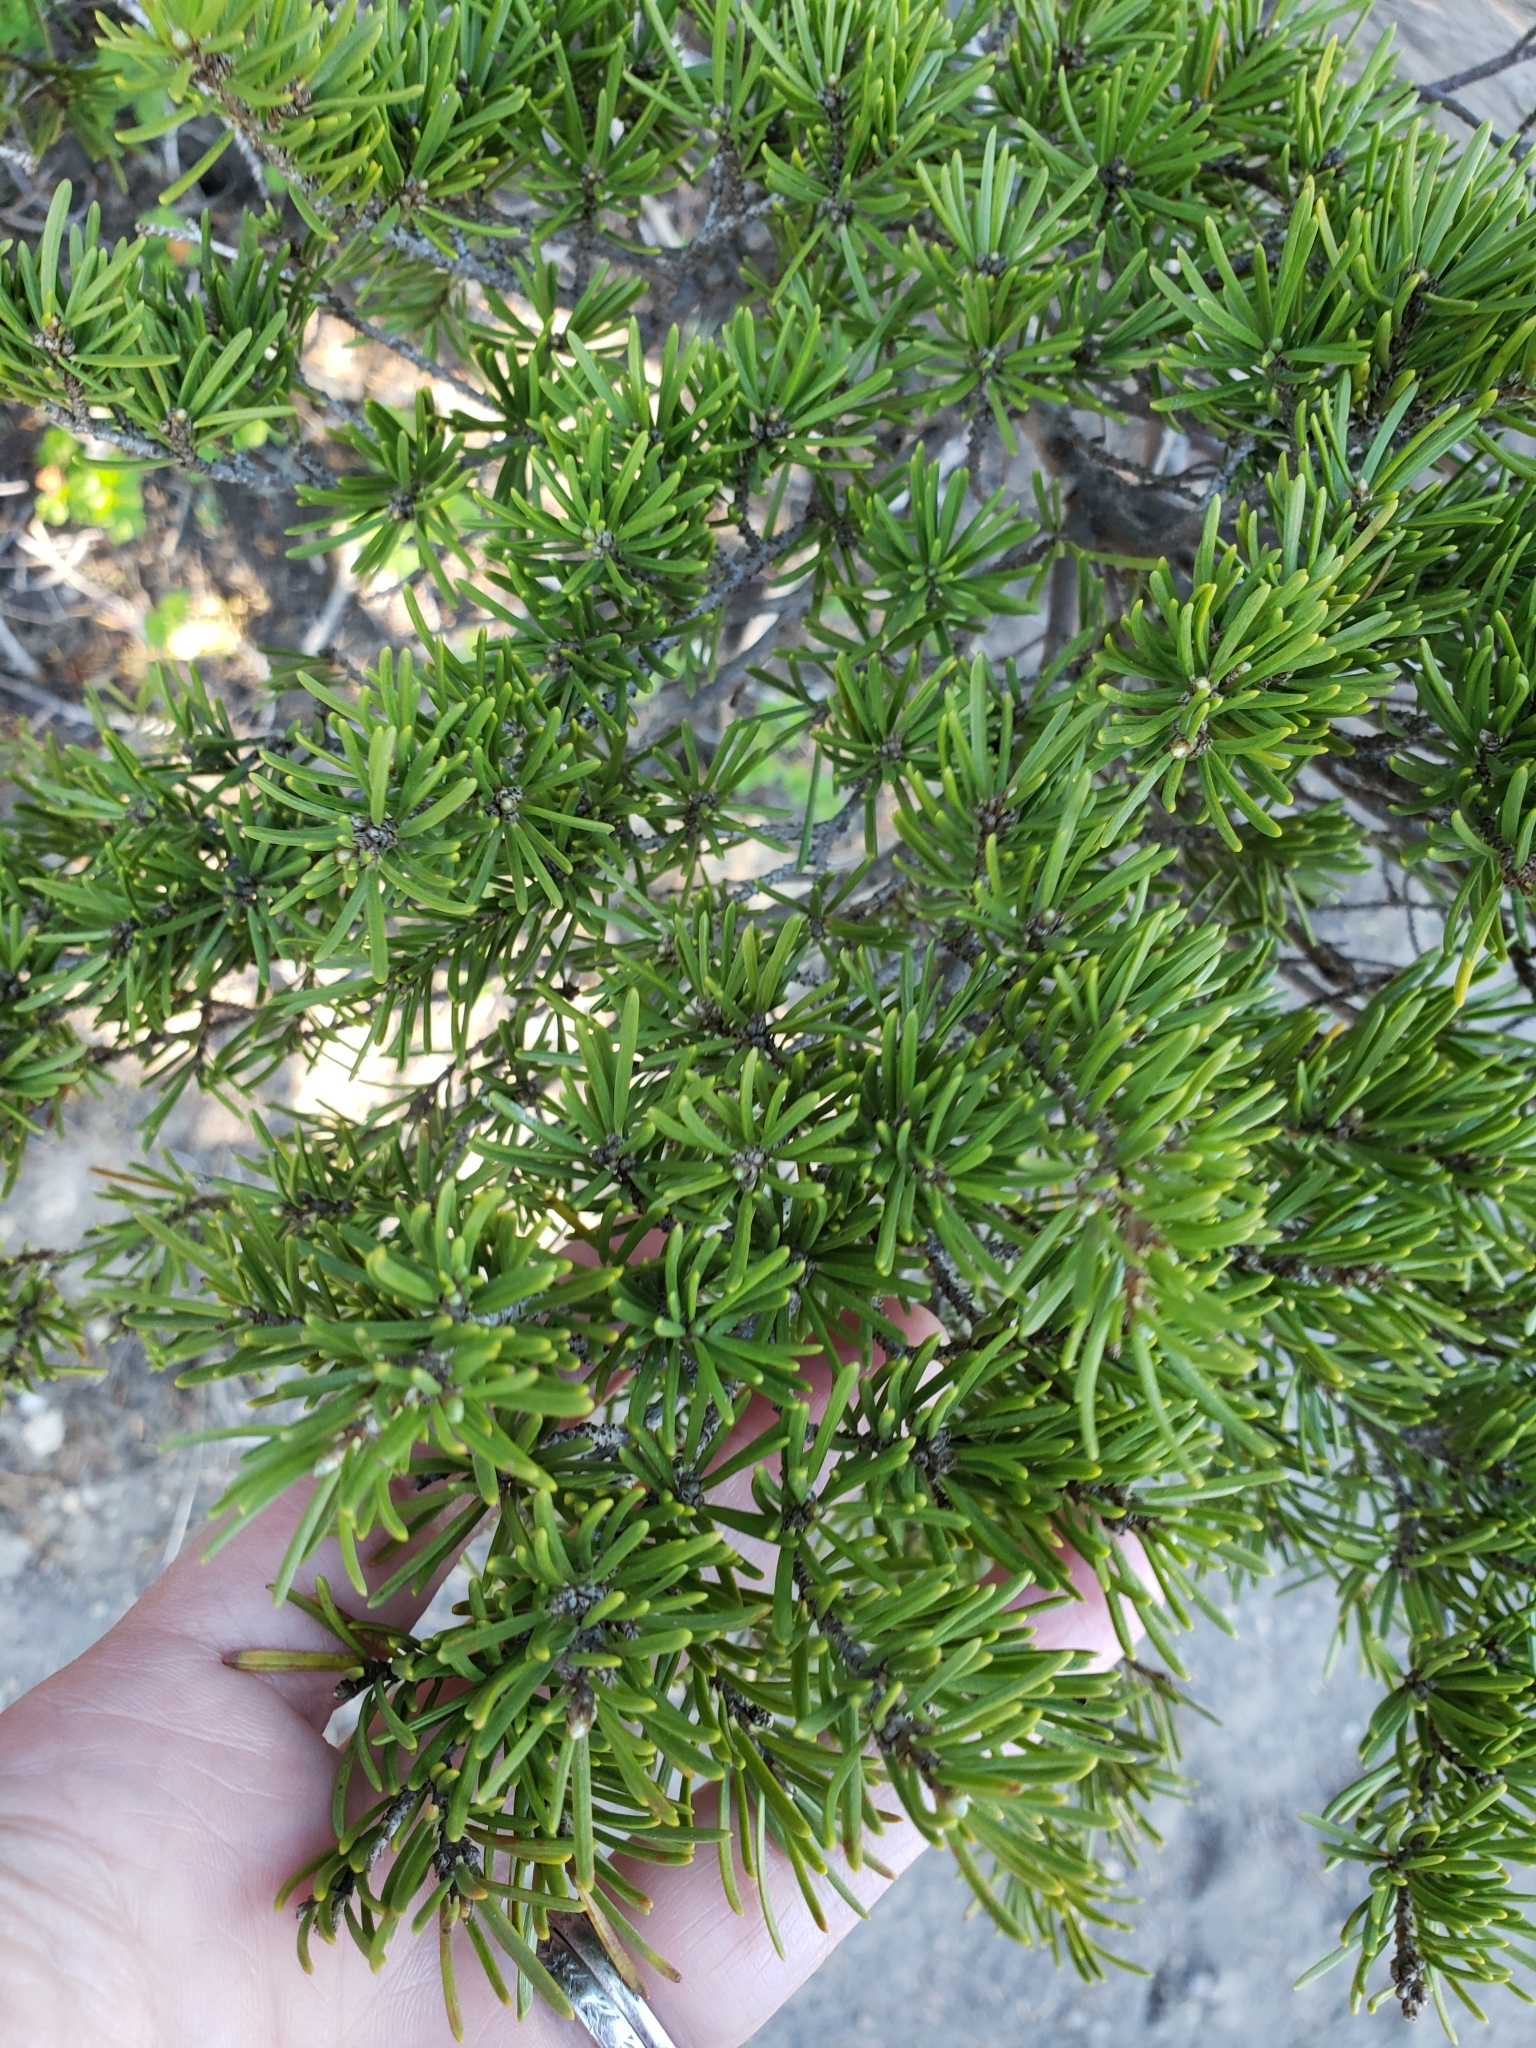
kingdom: Plantae
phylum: Tracheophyta
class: Pinopsida
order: Pinales
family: Pinaceae
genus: Tsuga
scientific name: Tsuga mertensiana
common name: Mountain hemlock
